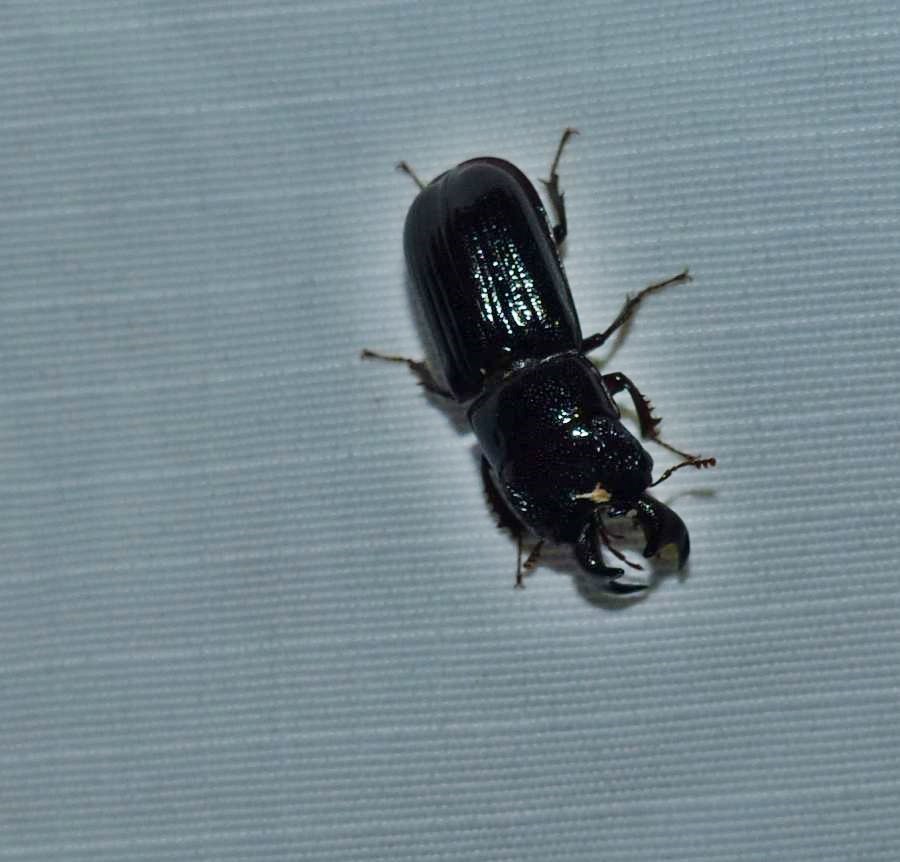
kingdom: Animalia
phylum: Arthropoda
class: Insecta
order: Coleoptera
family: Lucanidae
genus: Ceruchus
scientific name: Ceruchus piceus
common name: Red-rot decay stag beetle
